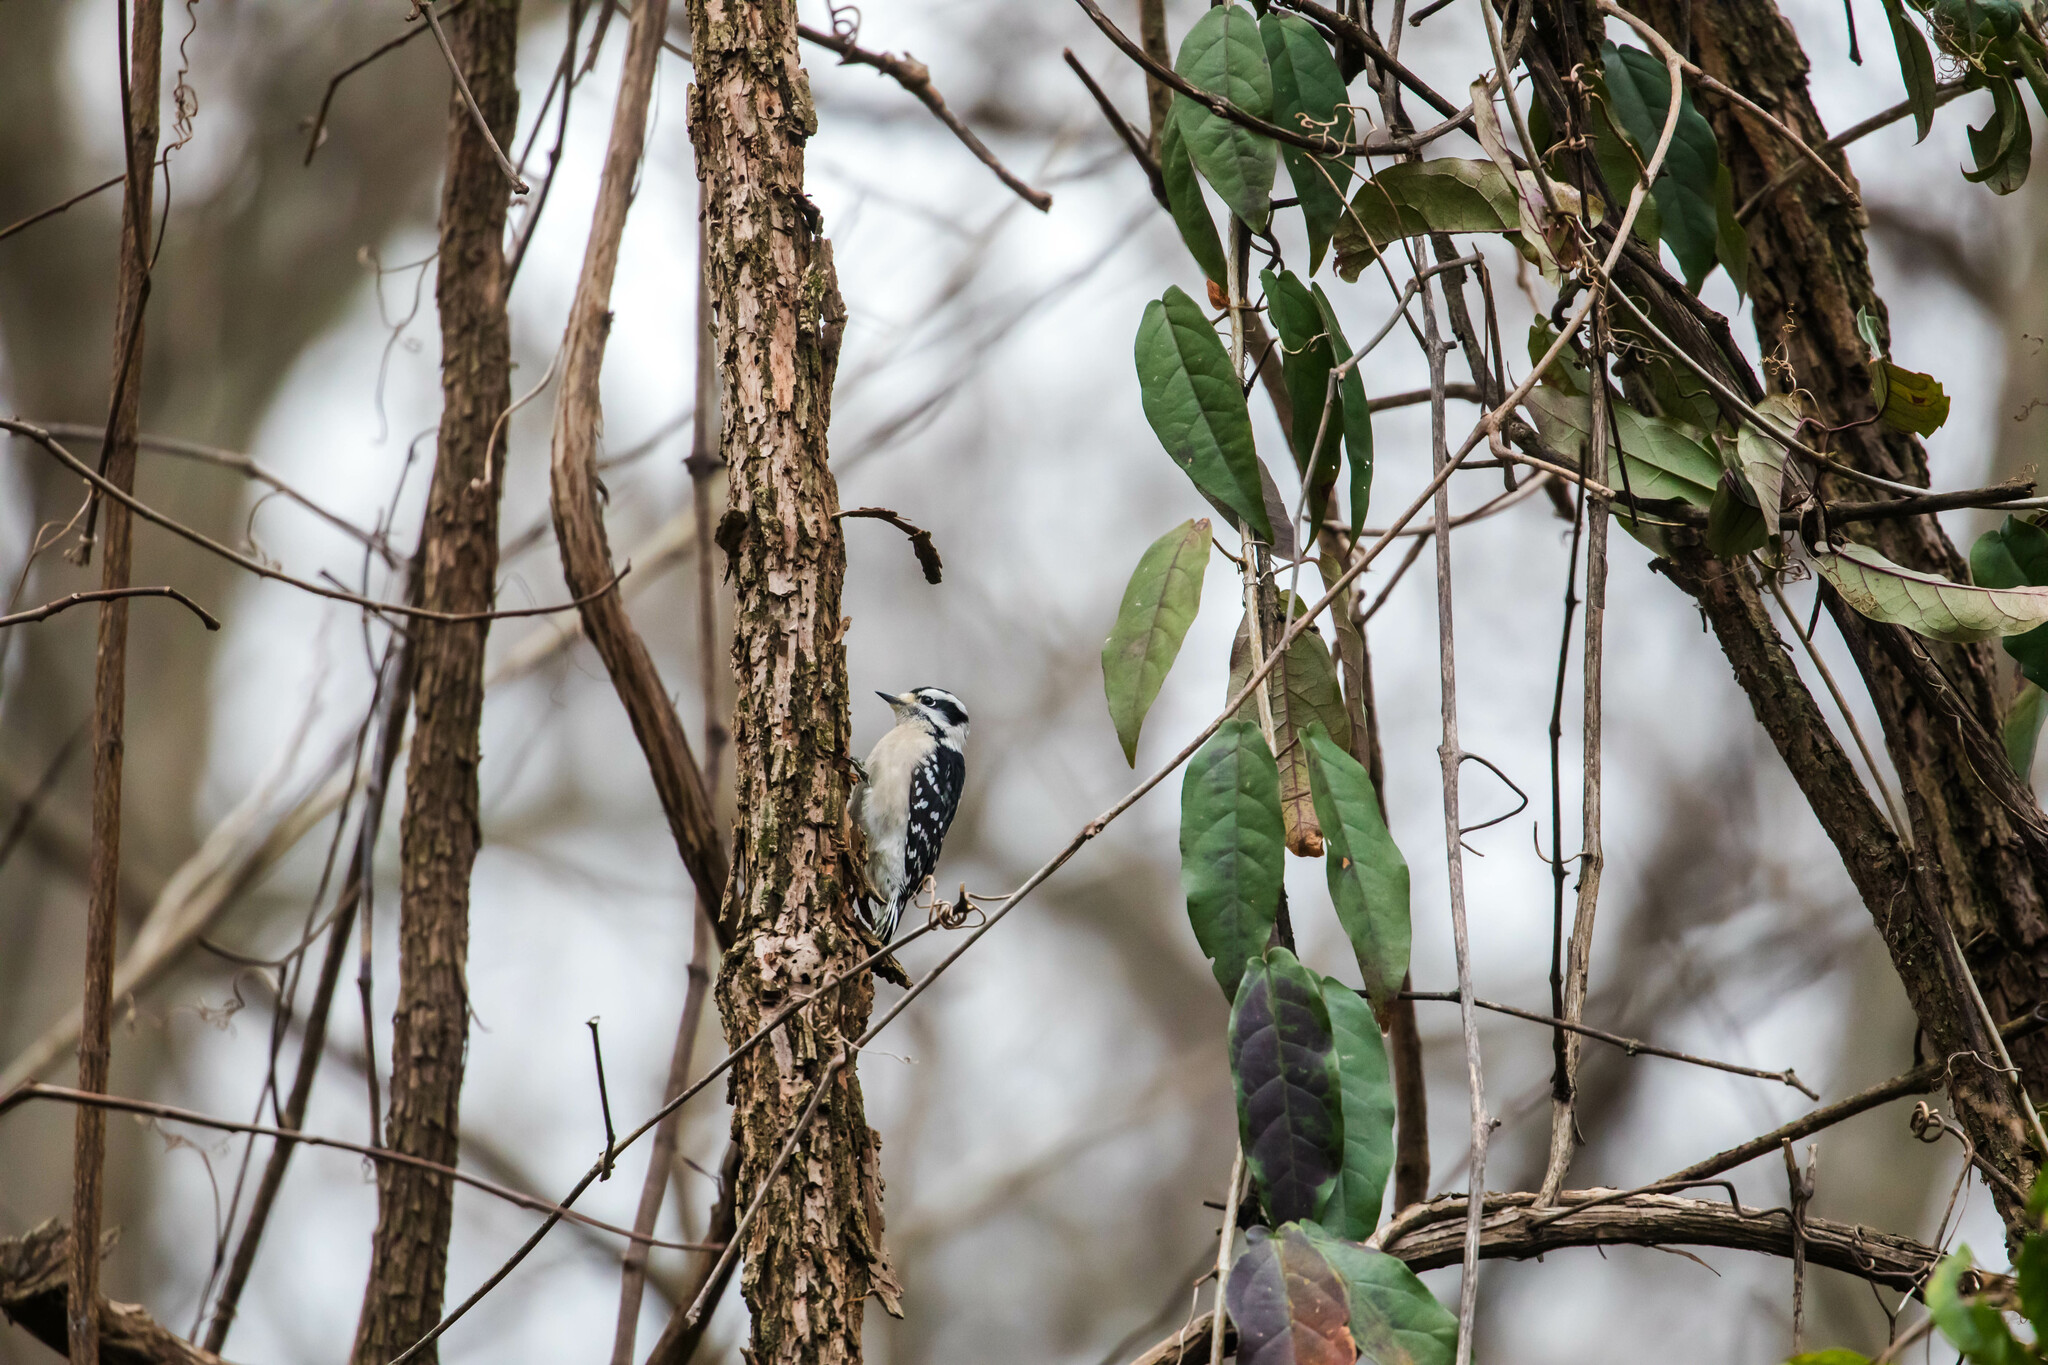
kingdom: Animalia
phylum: Chordata
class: Aves
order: Piciformes
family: Picidae
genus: Dryobates
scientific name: Dryobates pubescens
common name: Downy woodpecker
